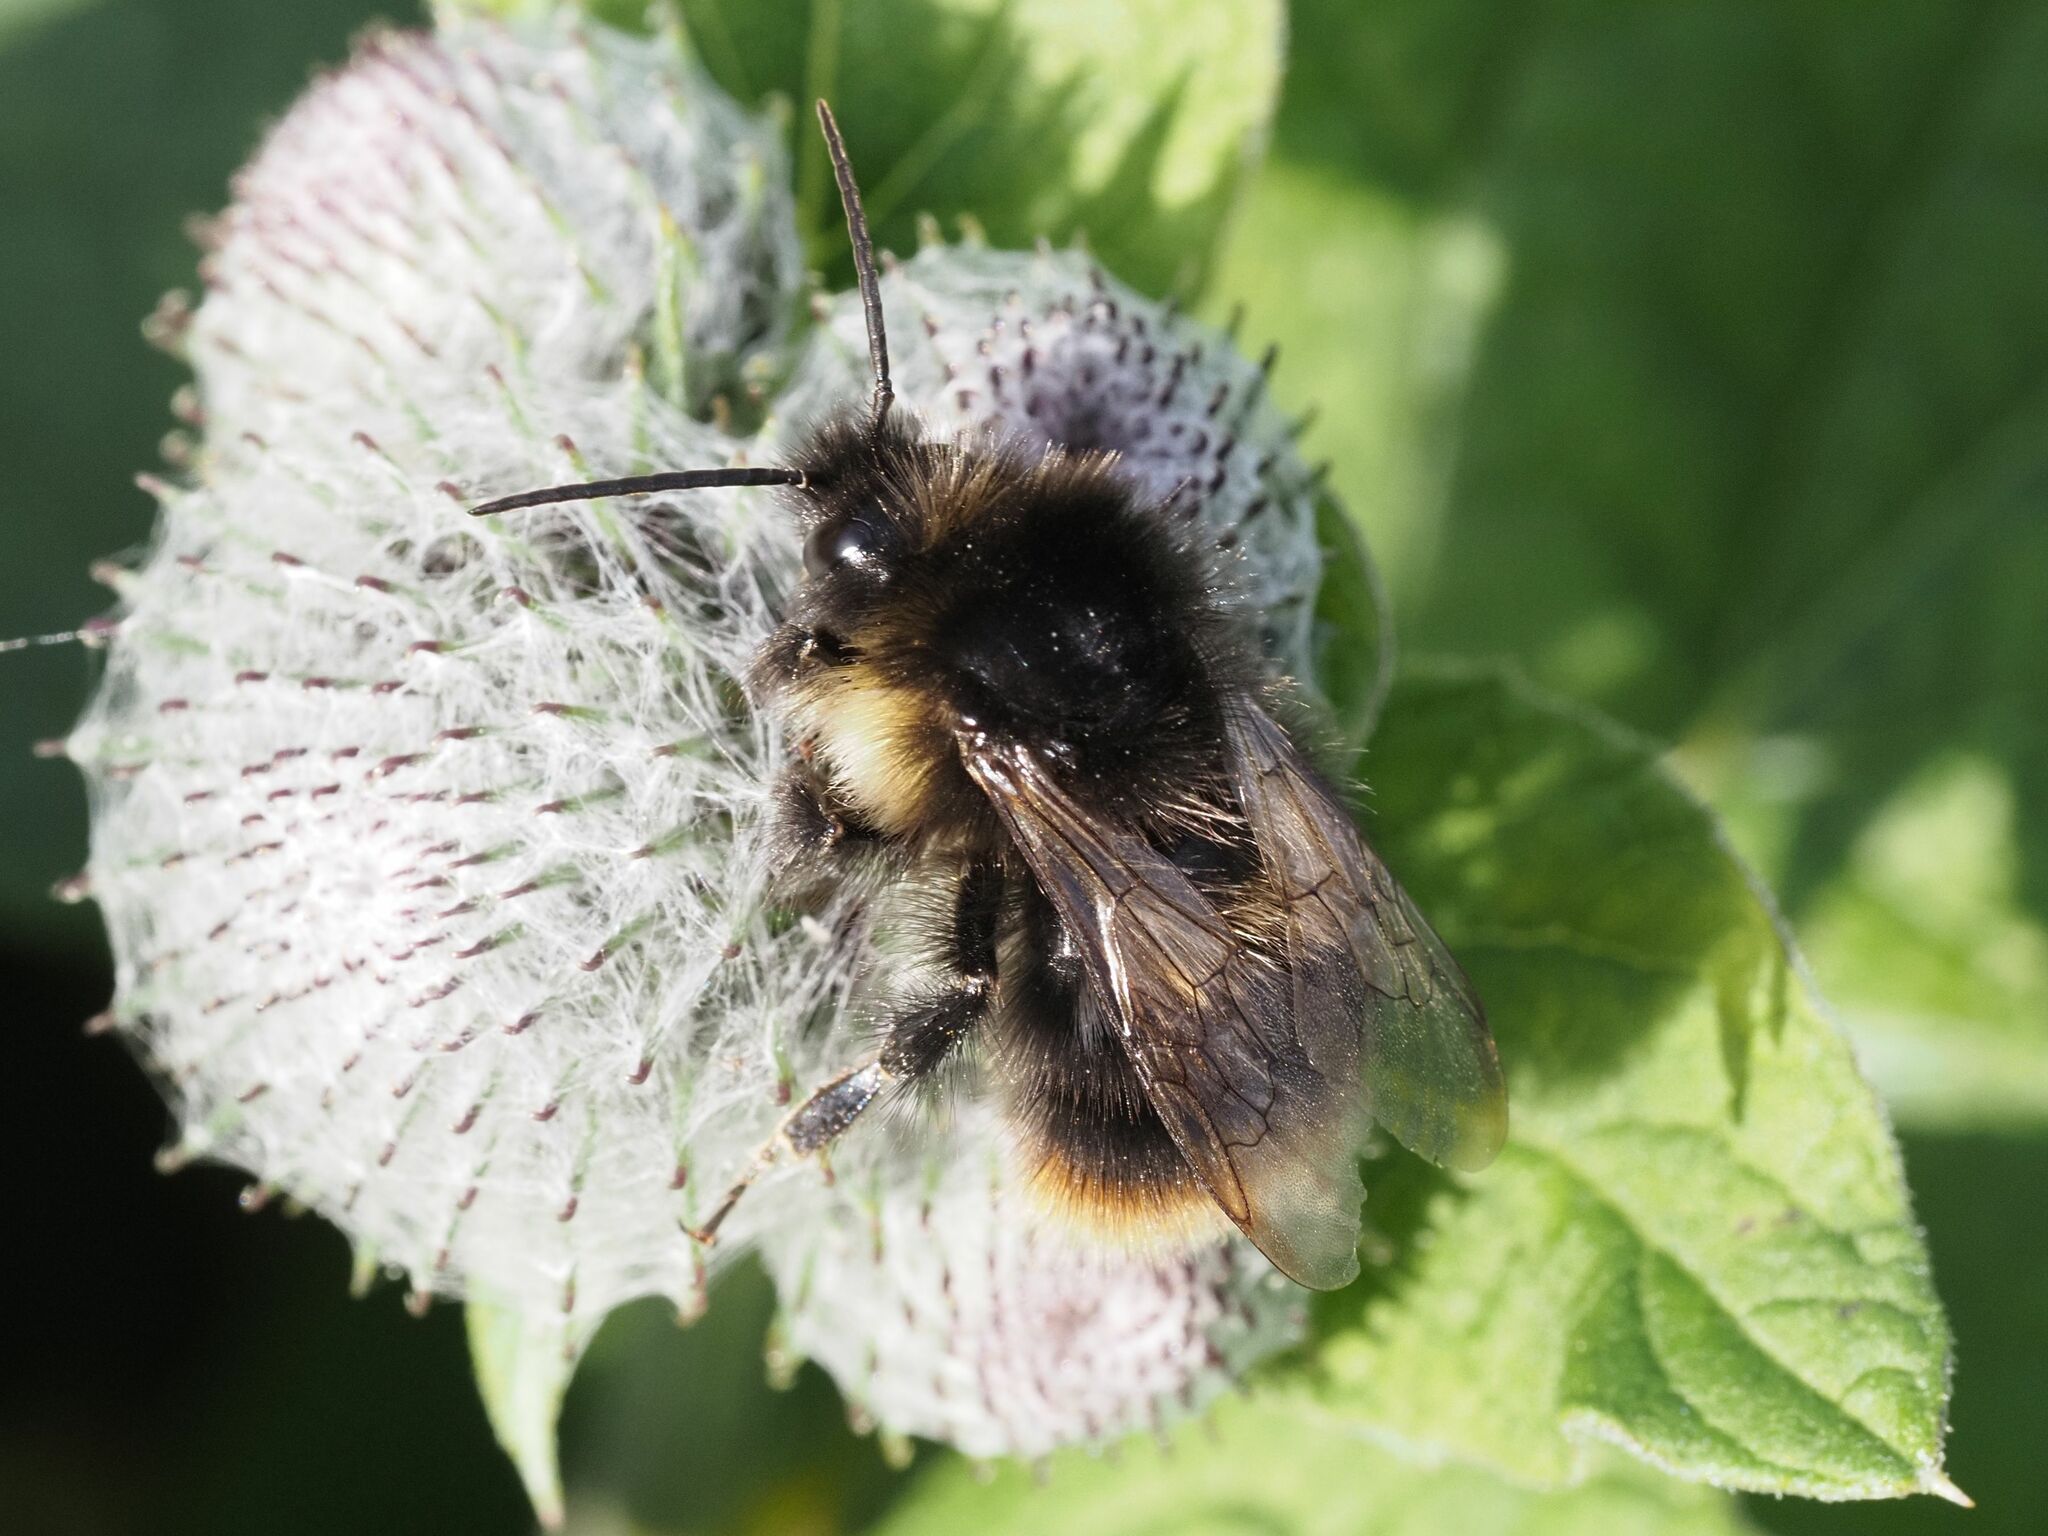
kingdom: Animalia
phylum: Arthropoda
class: Insecta
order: Hymenoptera
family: Apidae
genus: Bombus
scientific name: Bombus soroeensis
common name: Broken-belted humble-bee
